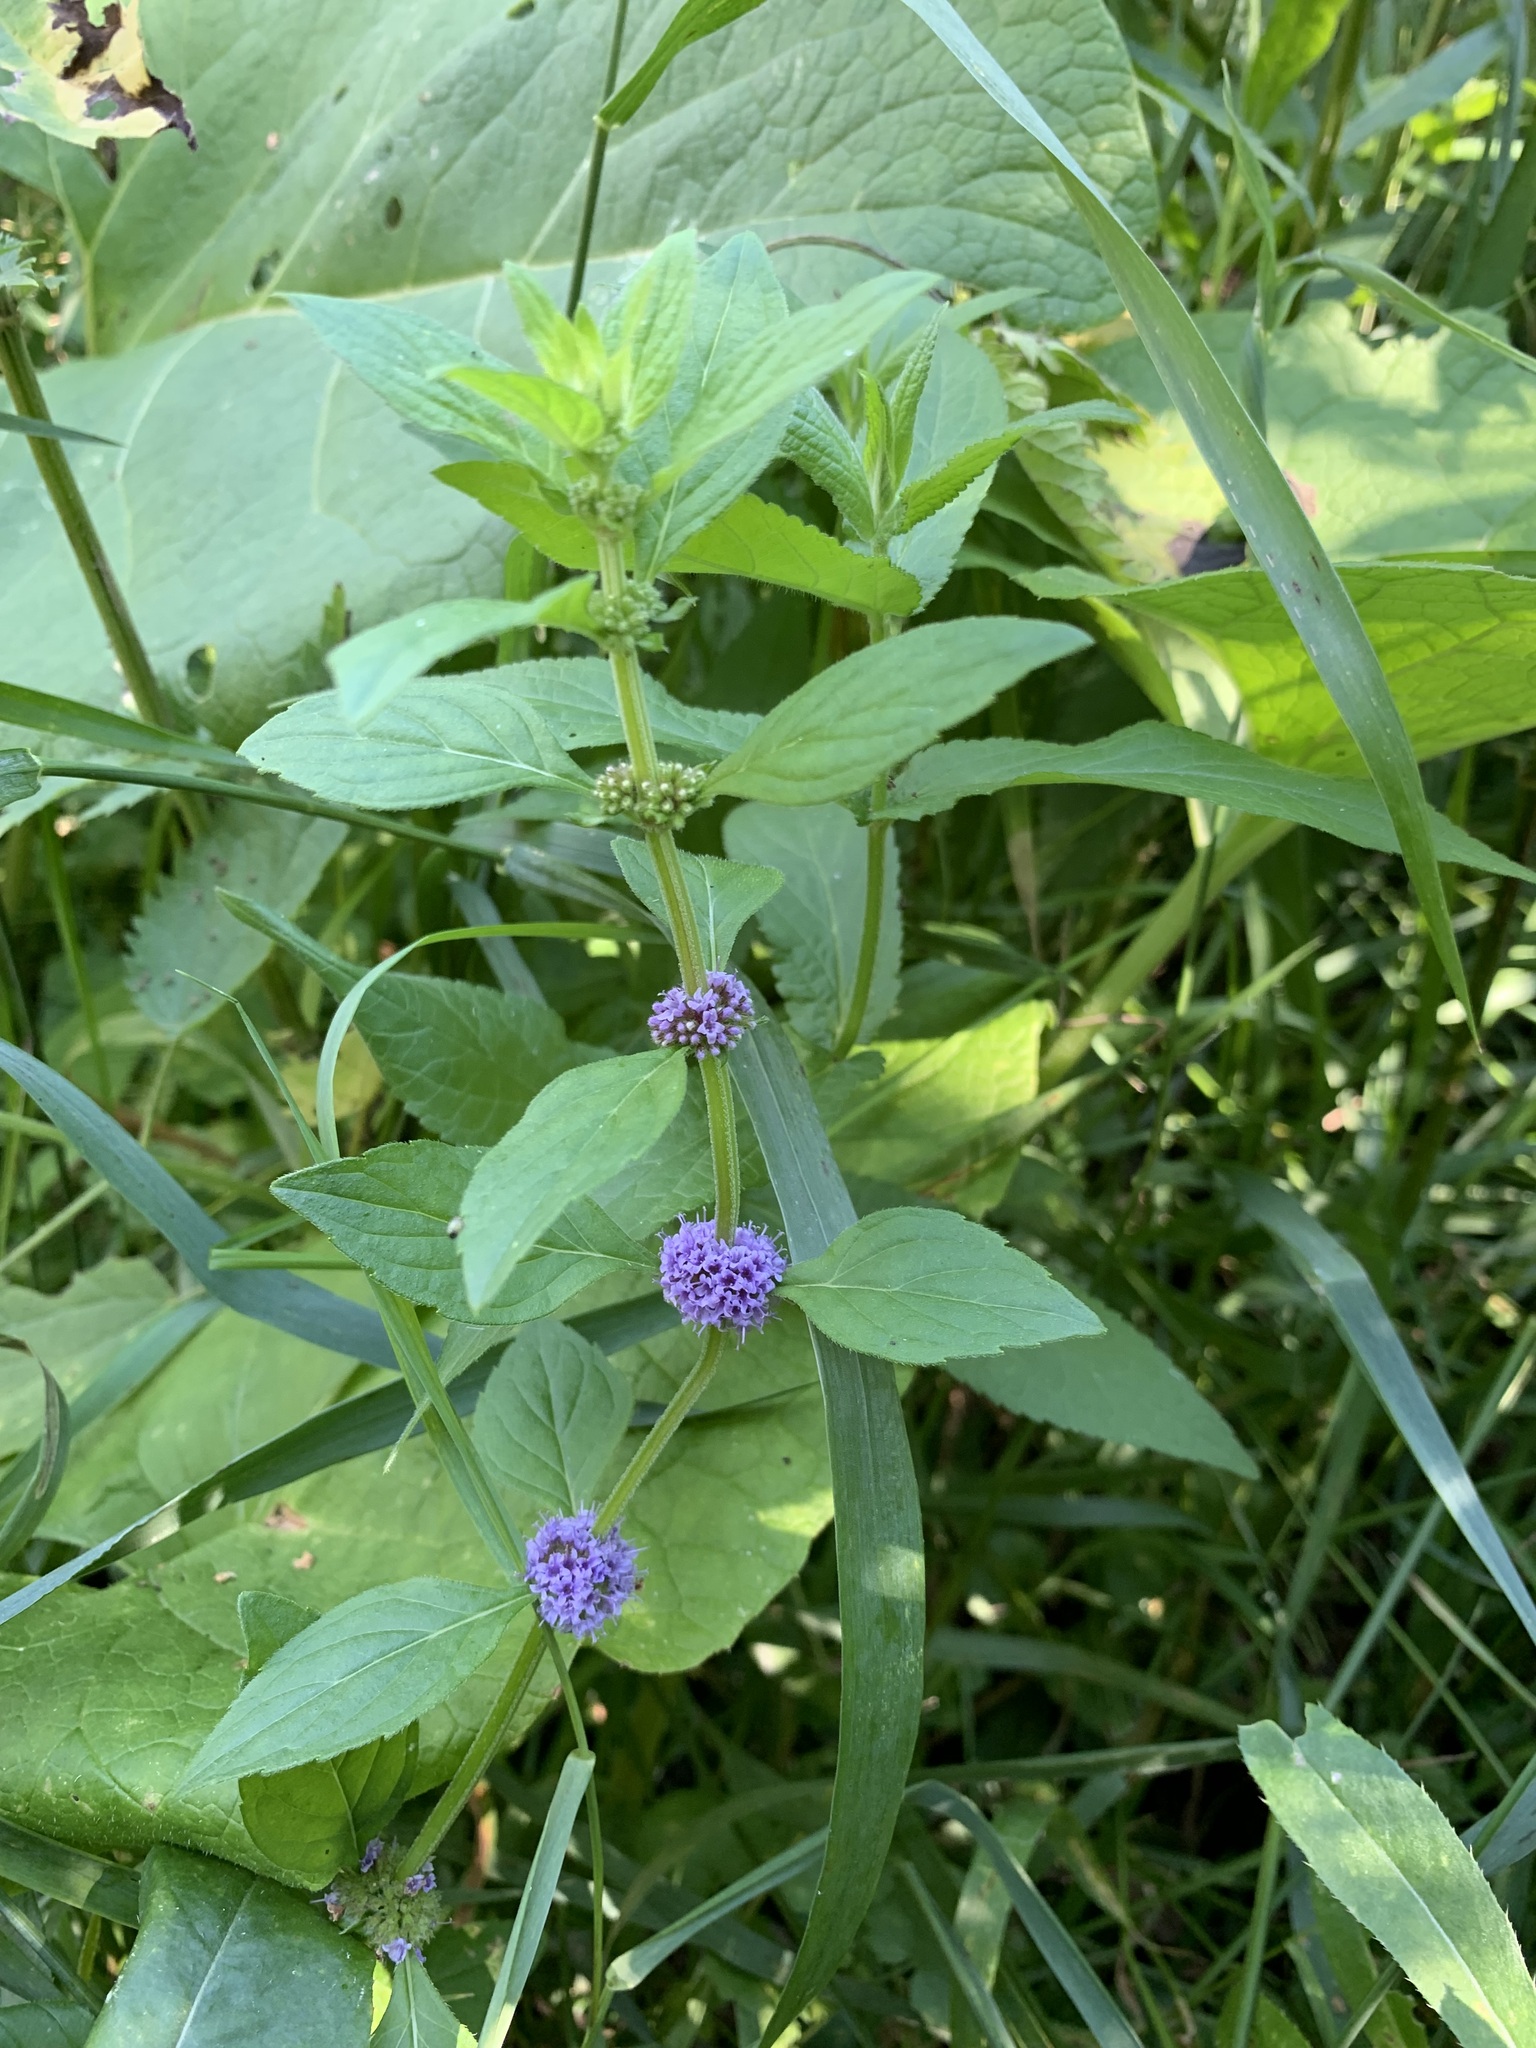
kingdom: Plantae
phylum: Tracheophyta
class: Magnoliopsida
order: Lamiales
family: Lamiaceae
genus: Mentha
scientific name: Mentha arvensis
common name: Corn mint
